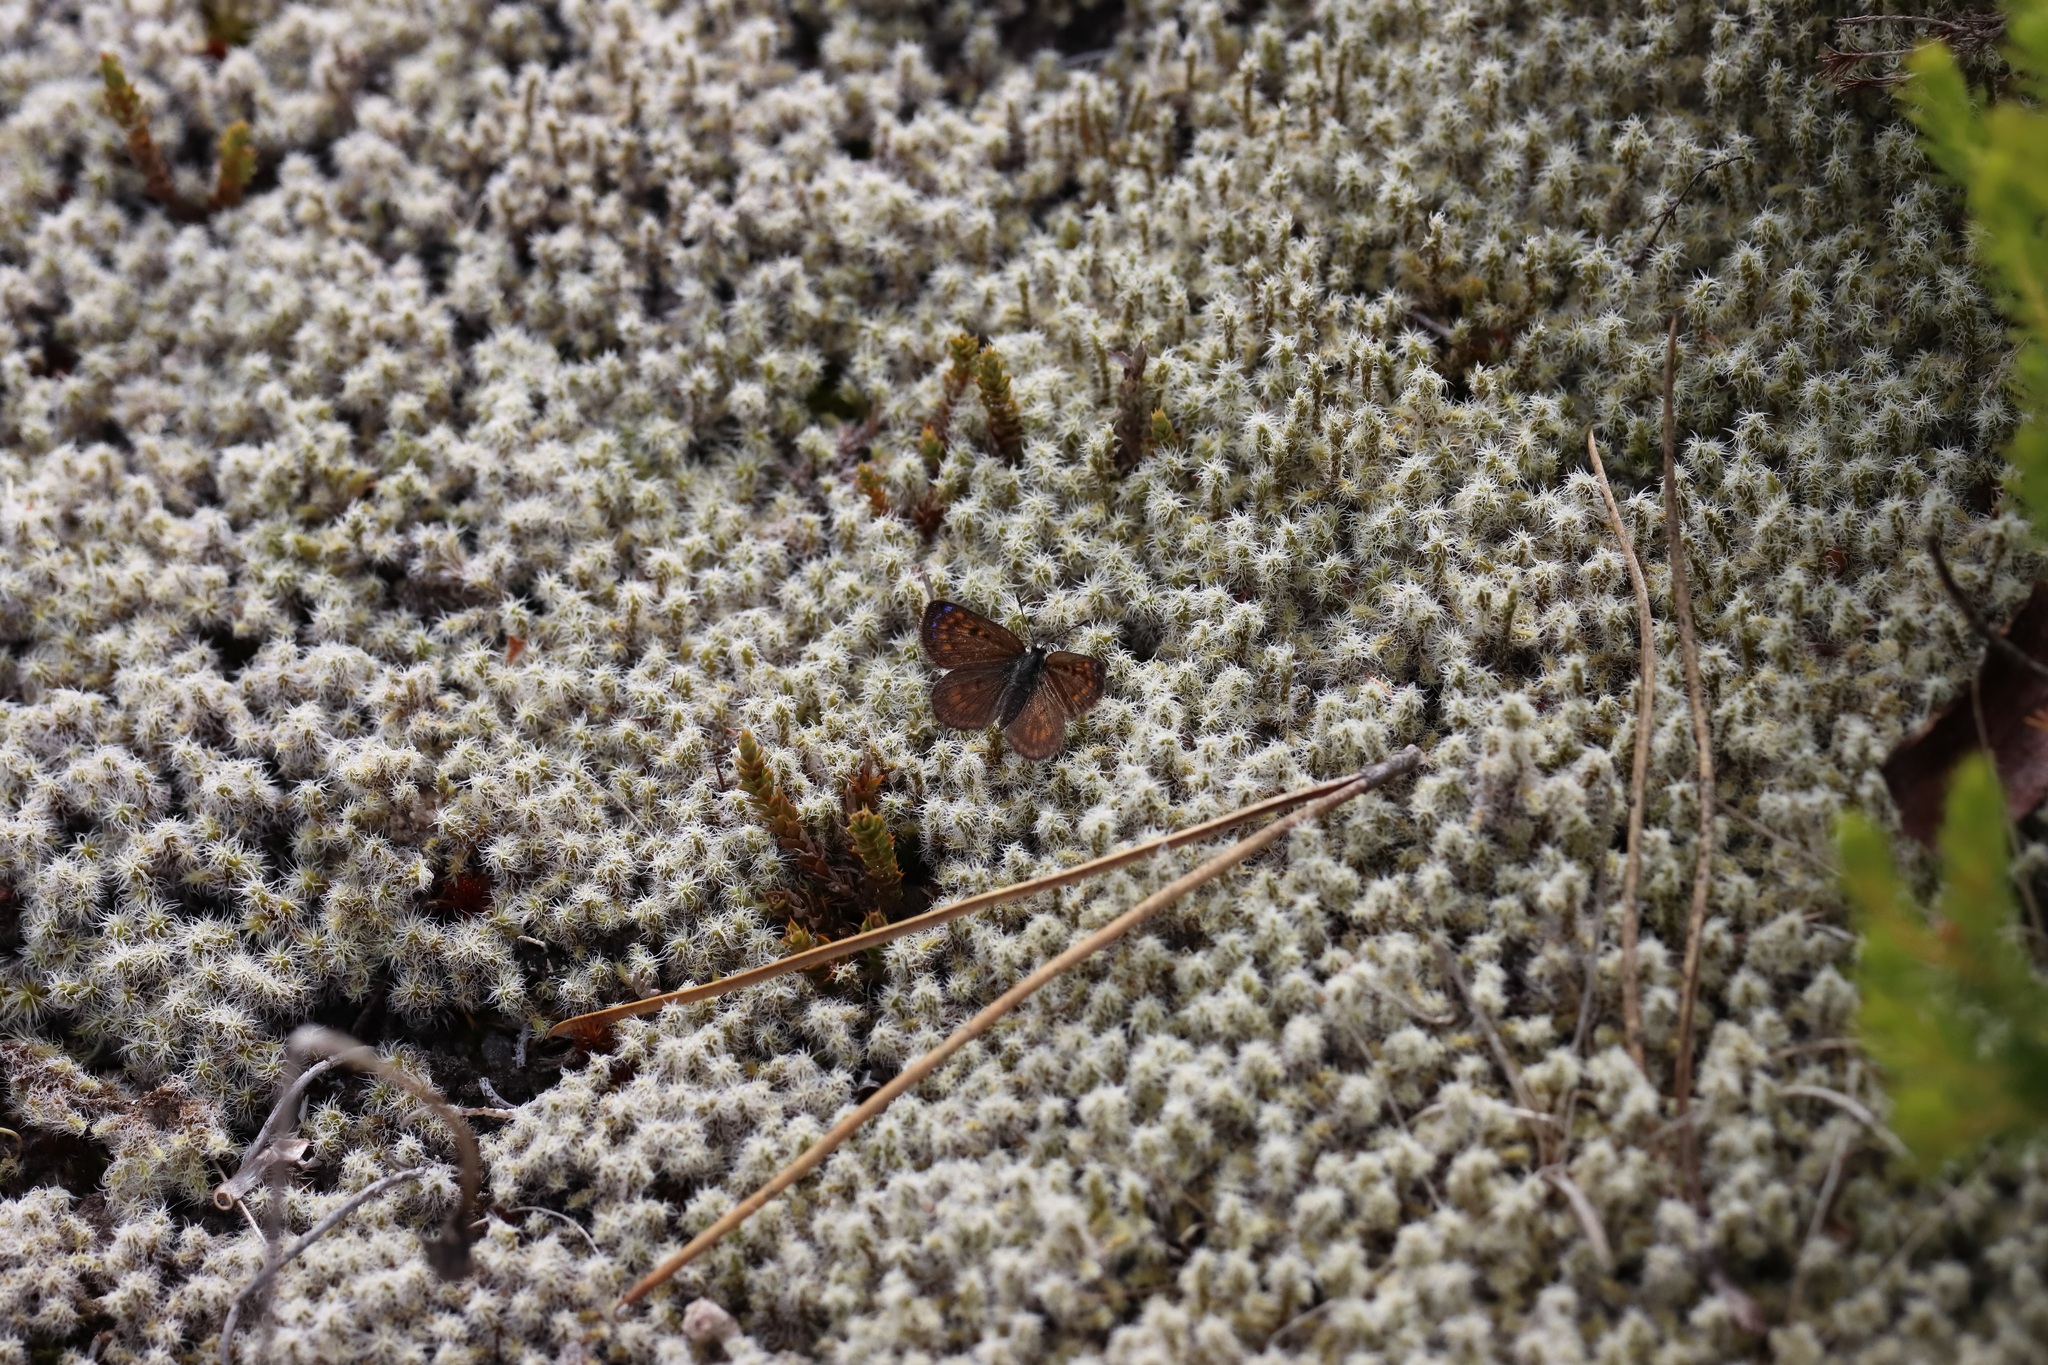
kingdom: Animalia
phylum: Arthropoda
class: Insecta
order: Lepidoptera
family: Lycaenidae
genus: Lycaena
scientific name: Lycaena boldenarum
